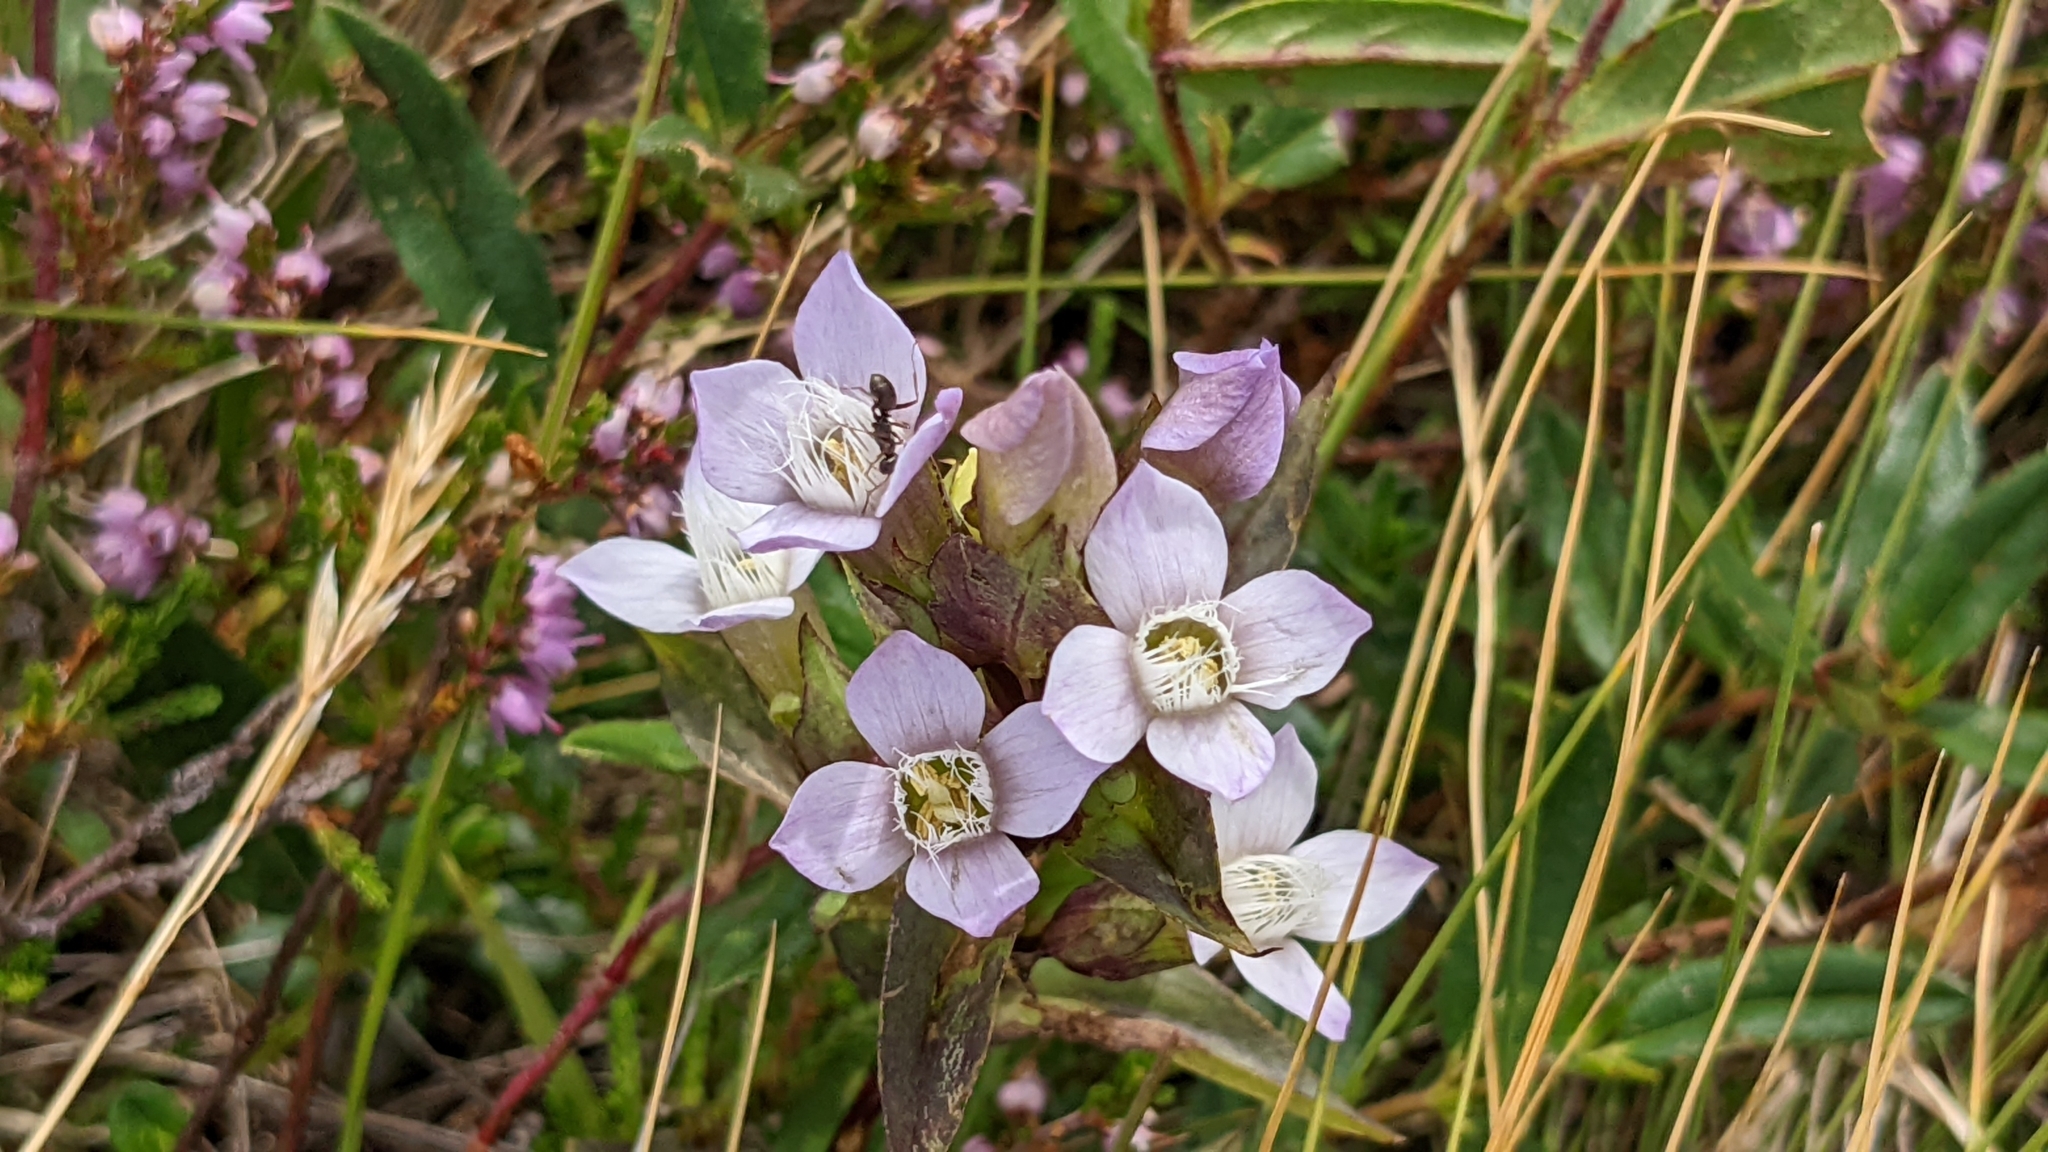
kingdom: Plantae
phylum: Tracheophyta
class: Magnoliopsida
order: Gentianales
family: Gentianaceae
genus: Gentianella
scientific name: Gentianella campestris
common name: Field gentian
